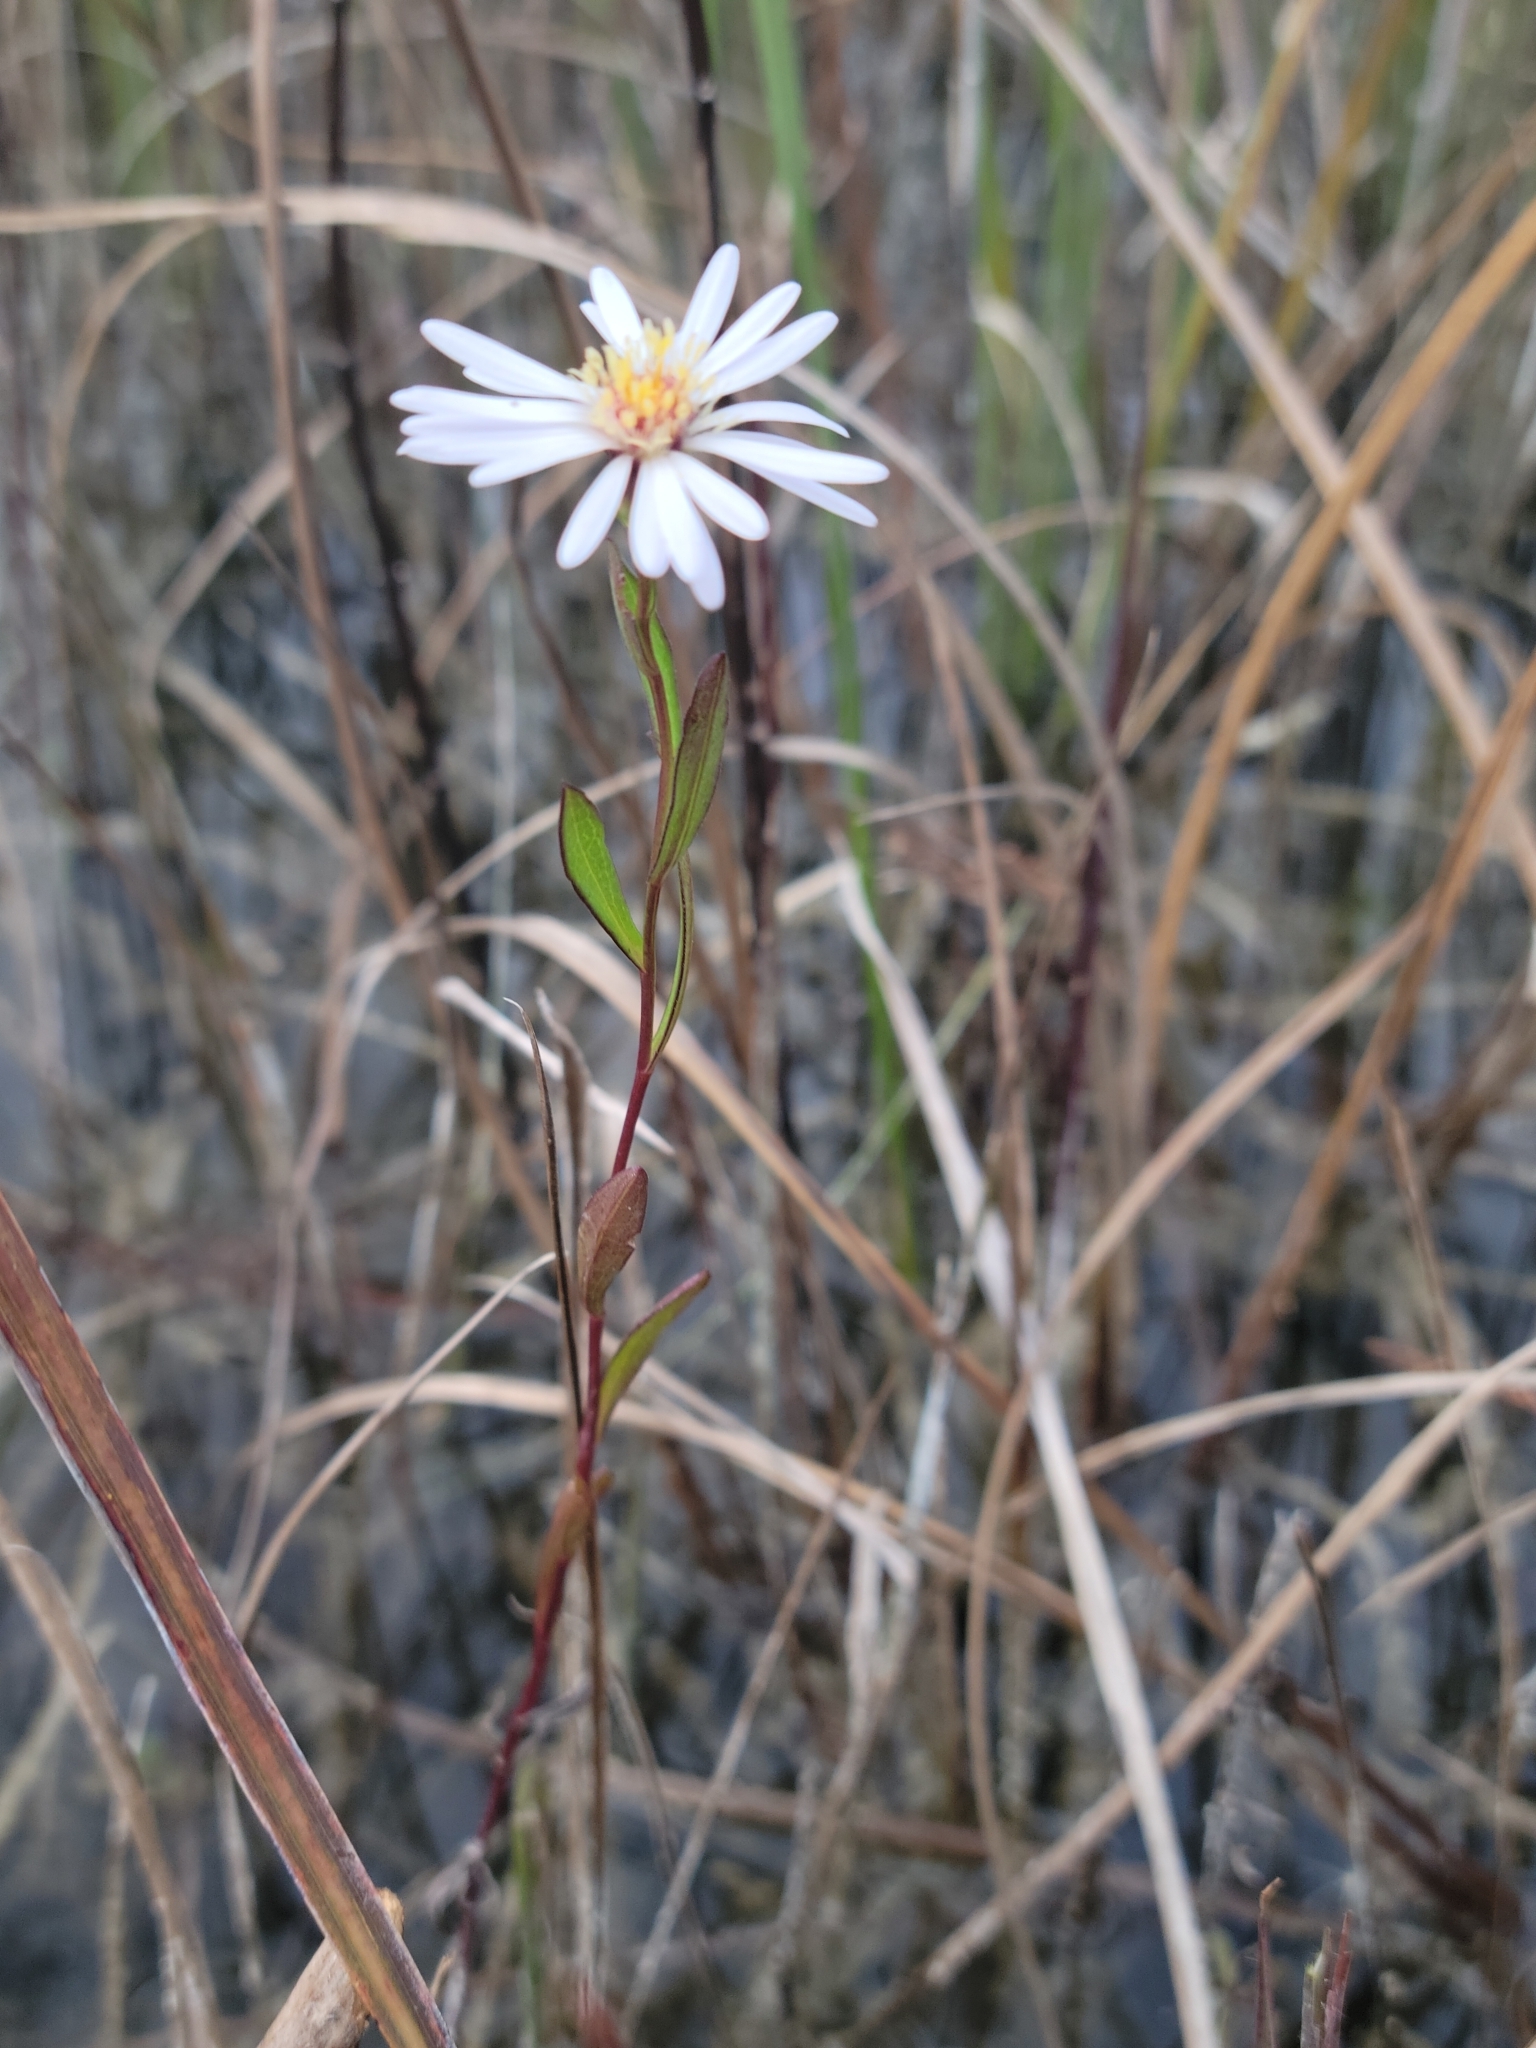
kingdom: Plantae
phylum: Tracheophyta
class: Magnoliopsida
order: Asterales
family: Asteraceae
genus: Symphyotrichum
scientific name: Symphyotrichum simmondsii
